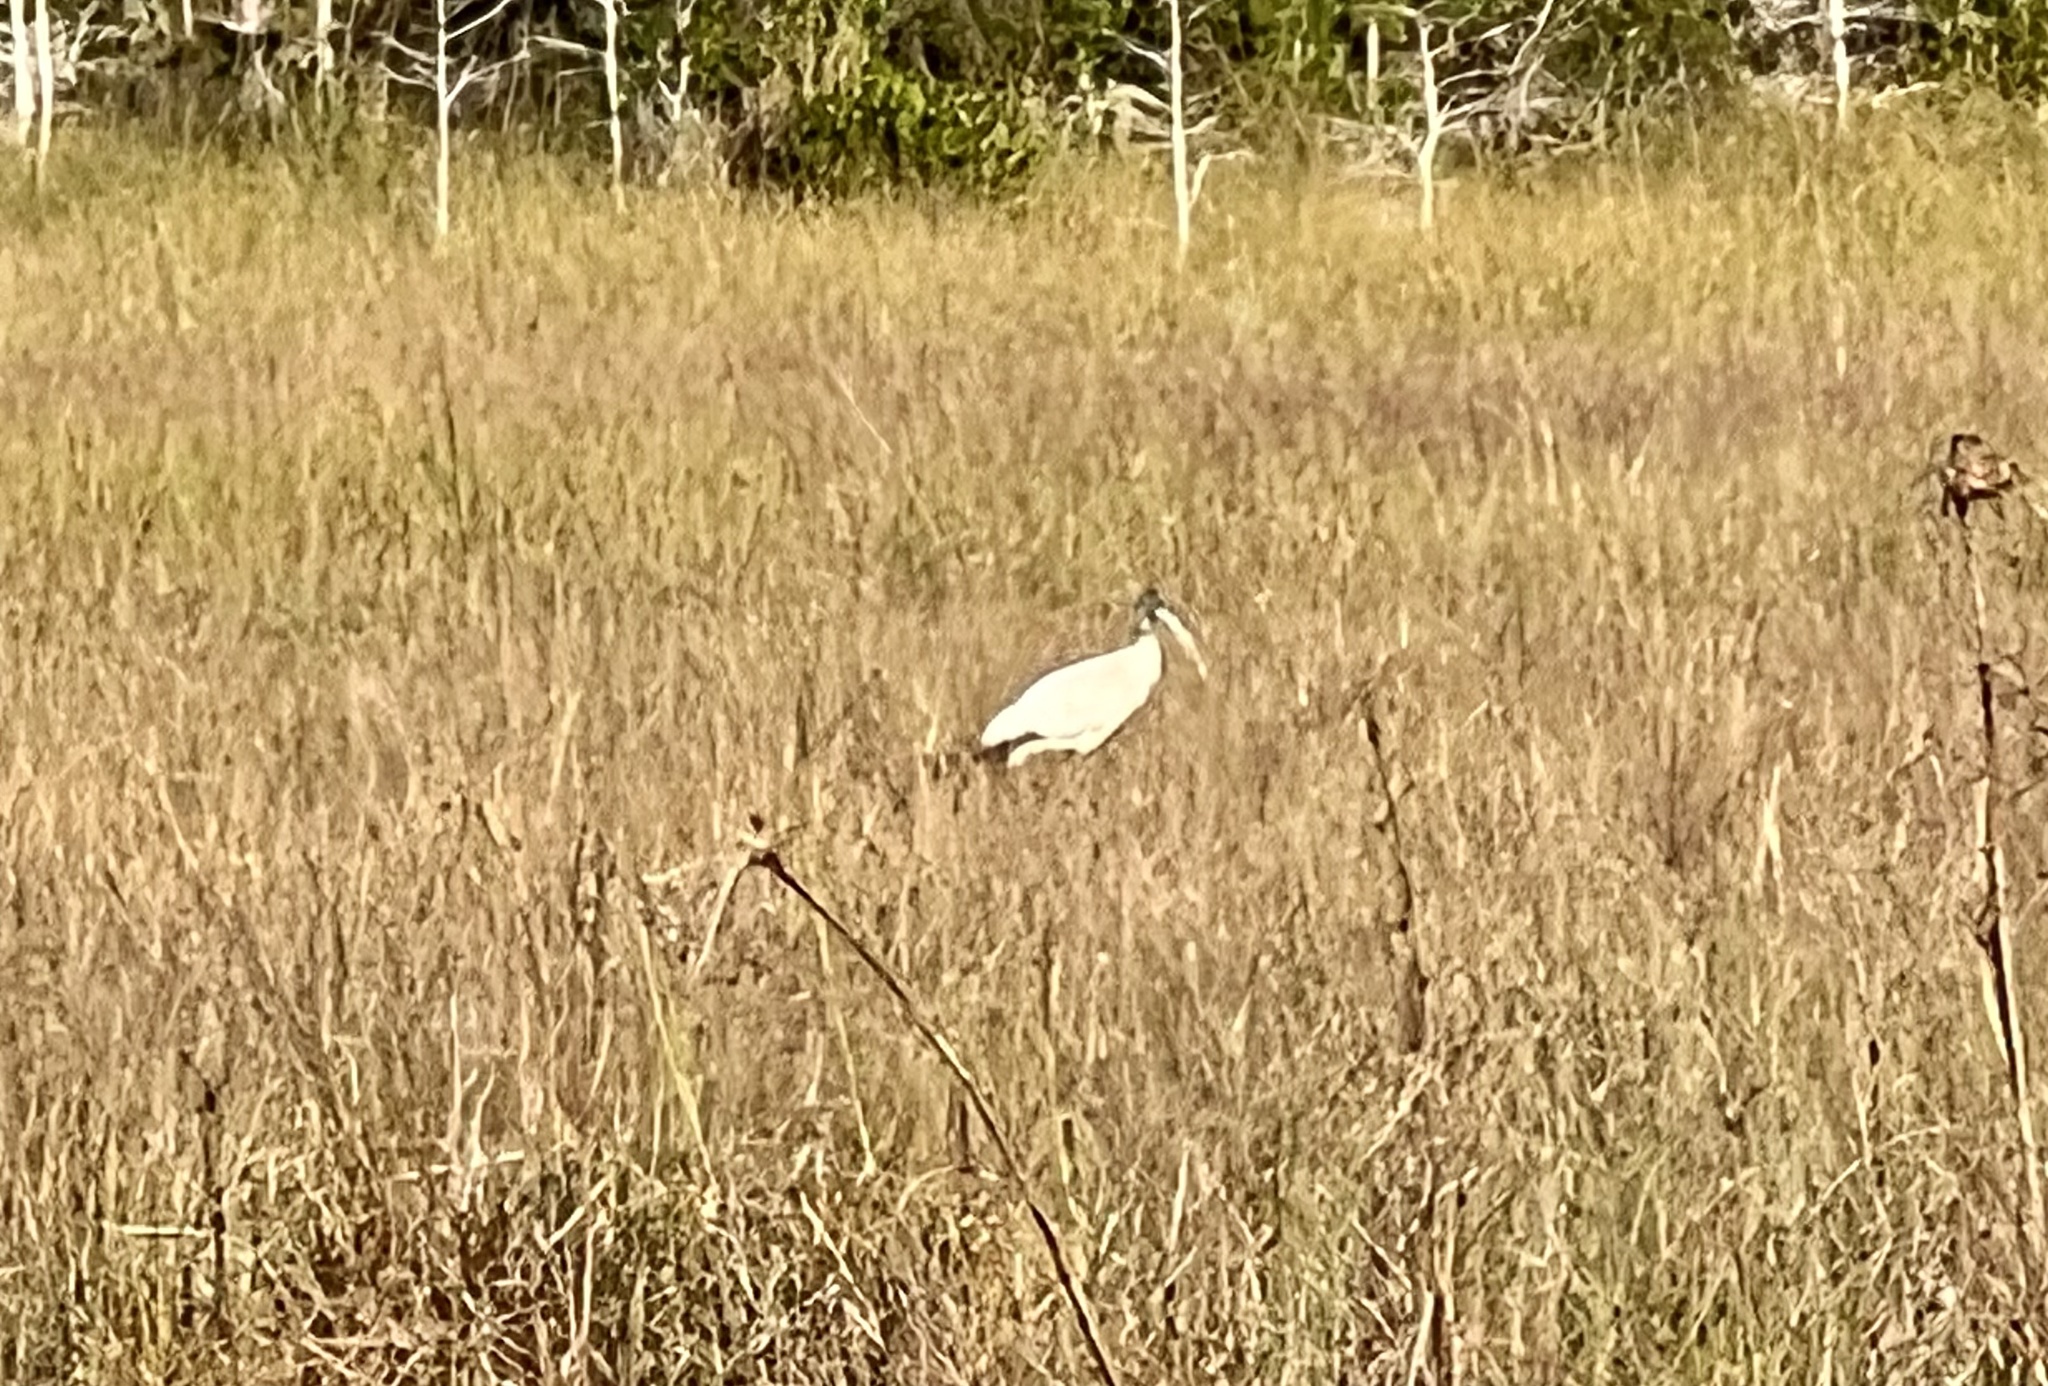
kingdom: Animalia
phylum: Chordata
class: Aves
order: Ciconiiformes
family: Ciconiidae
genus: Mycteria
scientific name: Mycteria americana
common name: Wood stork
